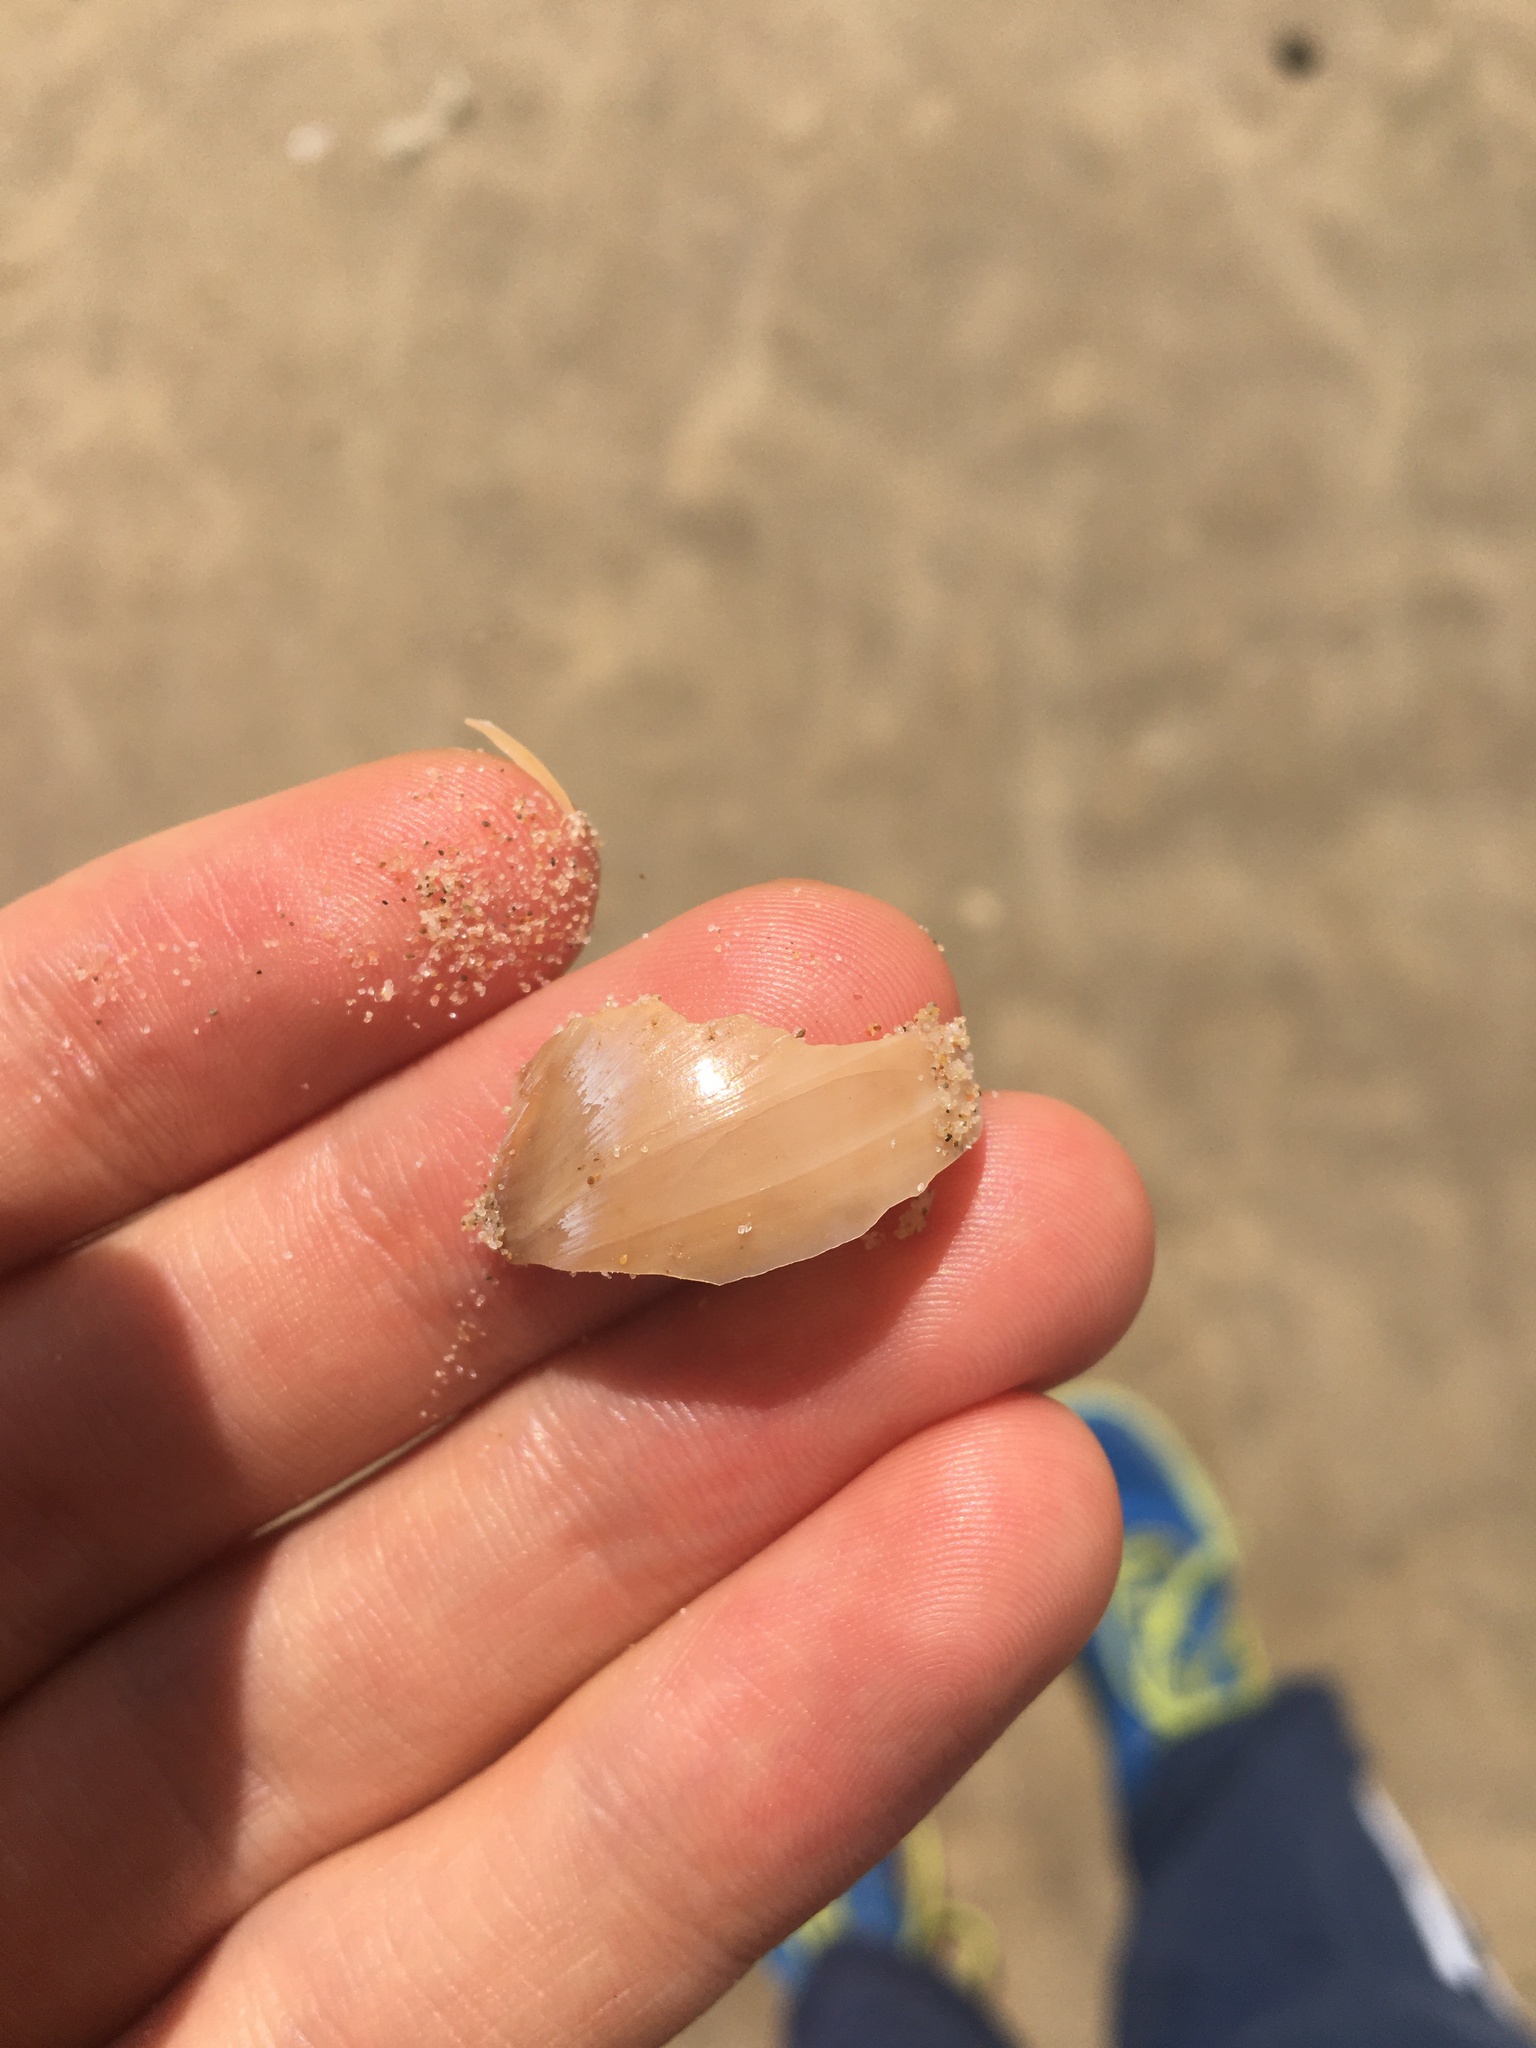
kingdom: Animalia
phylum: Mollusca
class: Gastropoda
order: Littorinimorpha
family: Naticidae
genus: Neverita
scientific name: Neverita didyma
